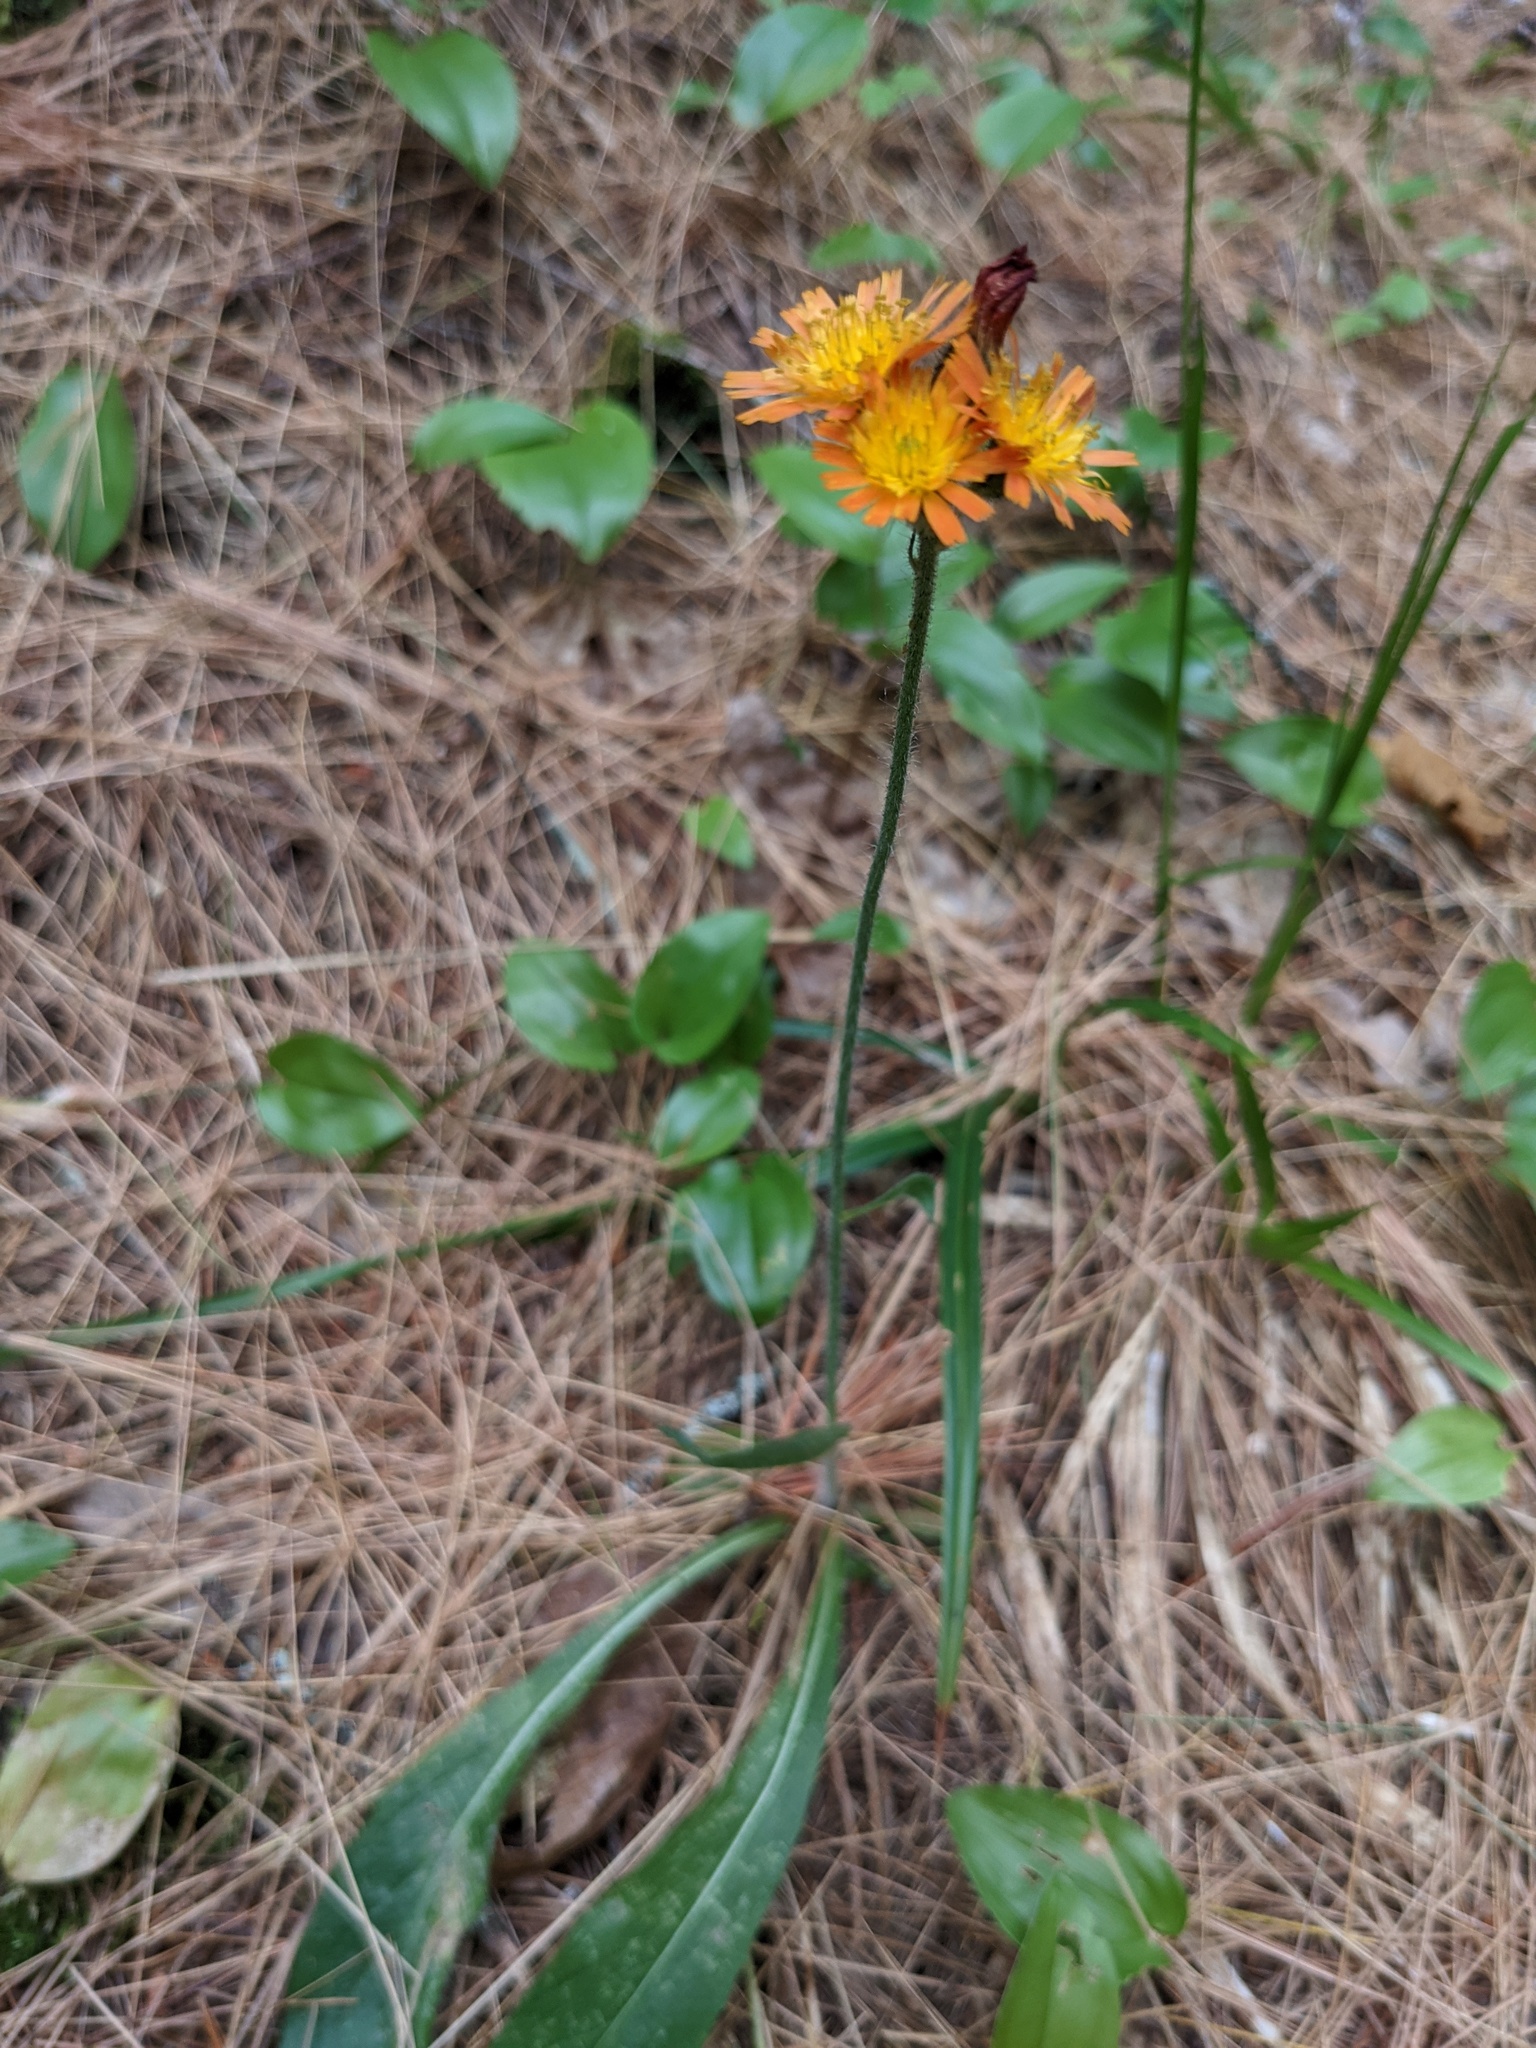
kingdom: Plantae
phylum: Tracheophyta
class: Magnoliopsida
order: Asterales
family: Asteraceae
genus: Pilosella
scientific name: Pilosella aurantiaca
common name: Fox-and-cubs
